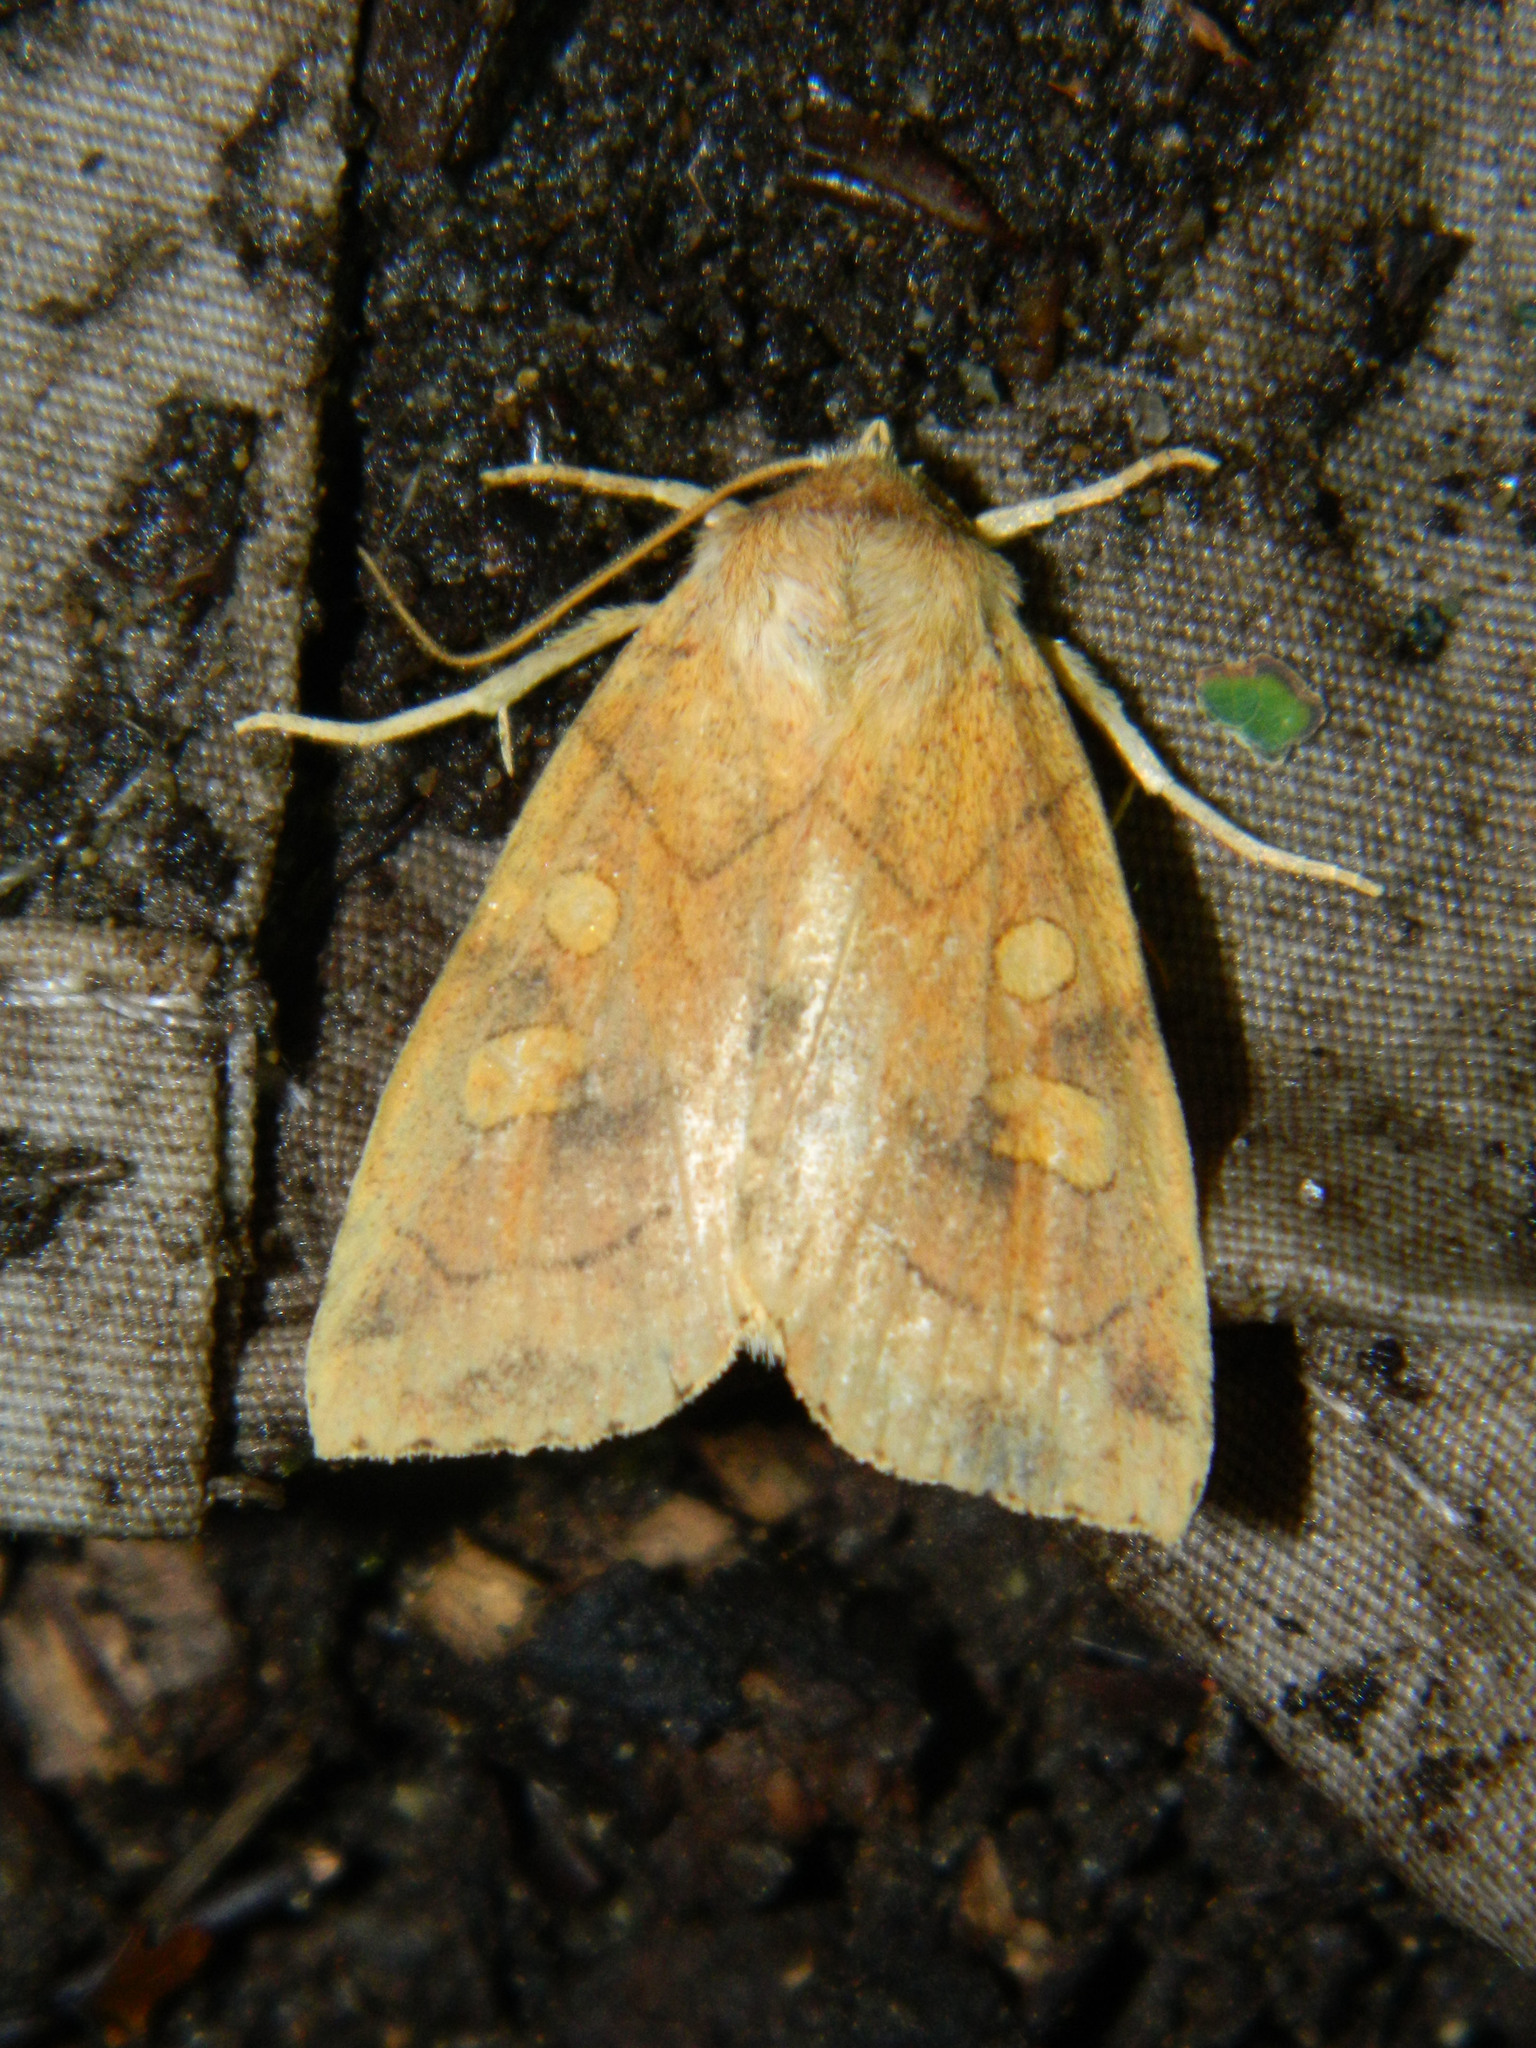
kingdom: Animalia
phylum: Arthropoda
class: Insecta
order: Lepidoptera
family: Noctuidae
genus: Enargia
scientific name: Enargia decolor
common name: Aspen twoleaf tier moth
